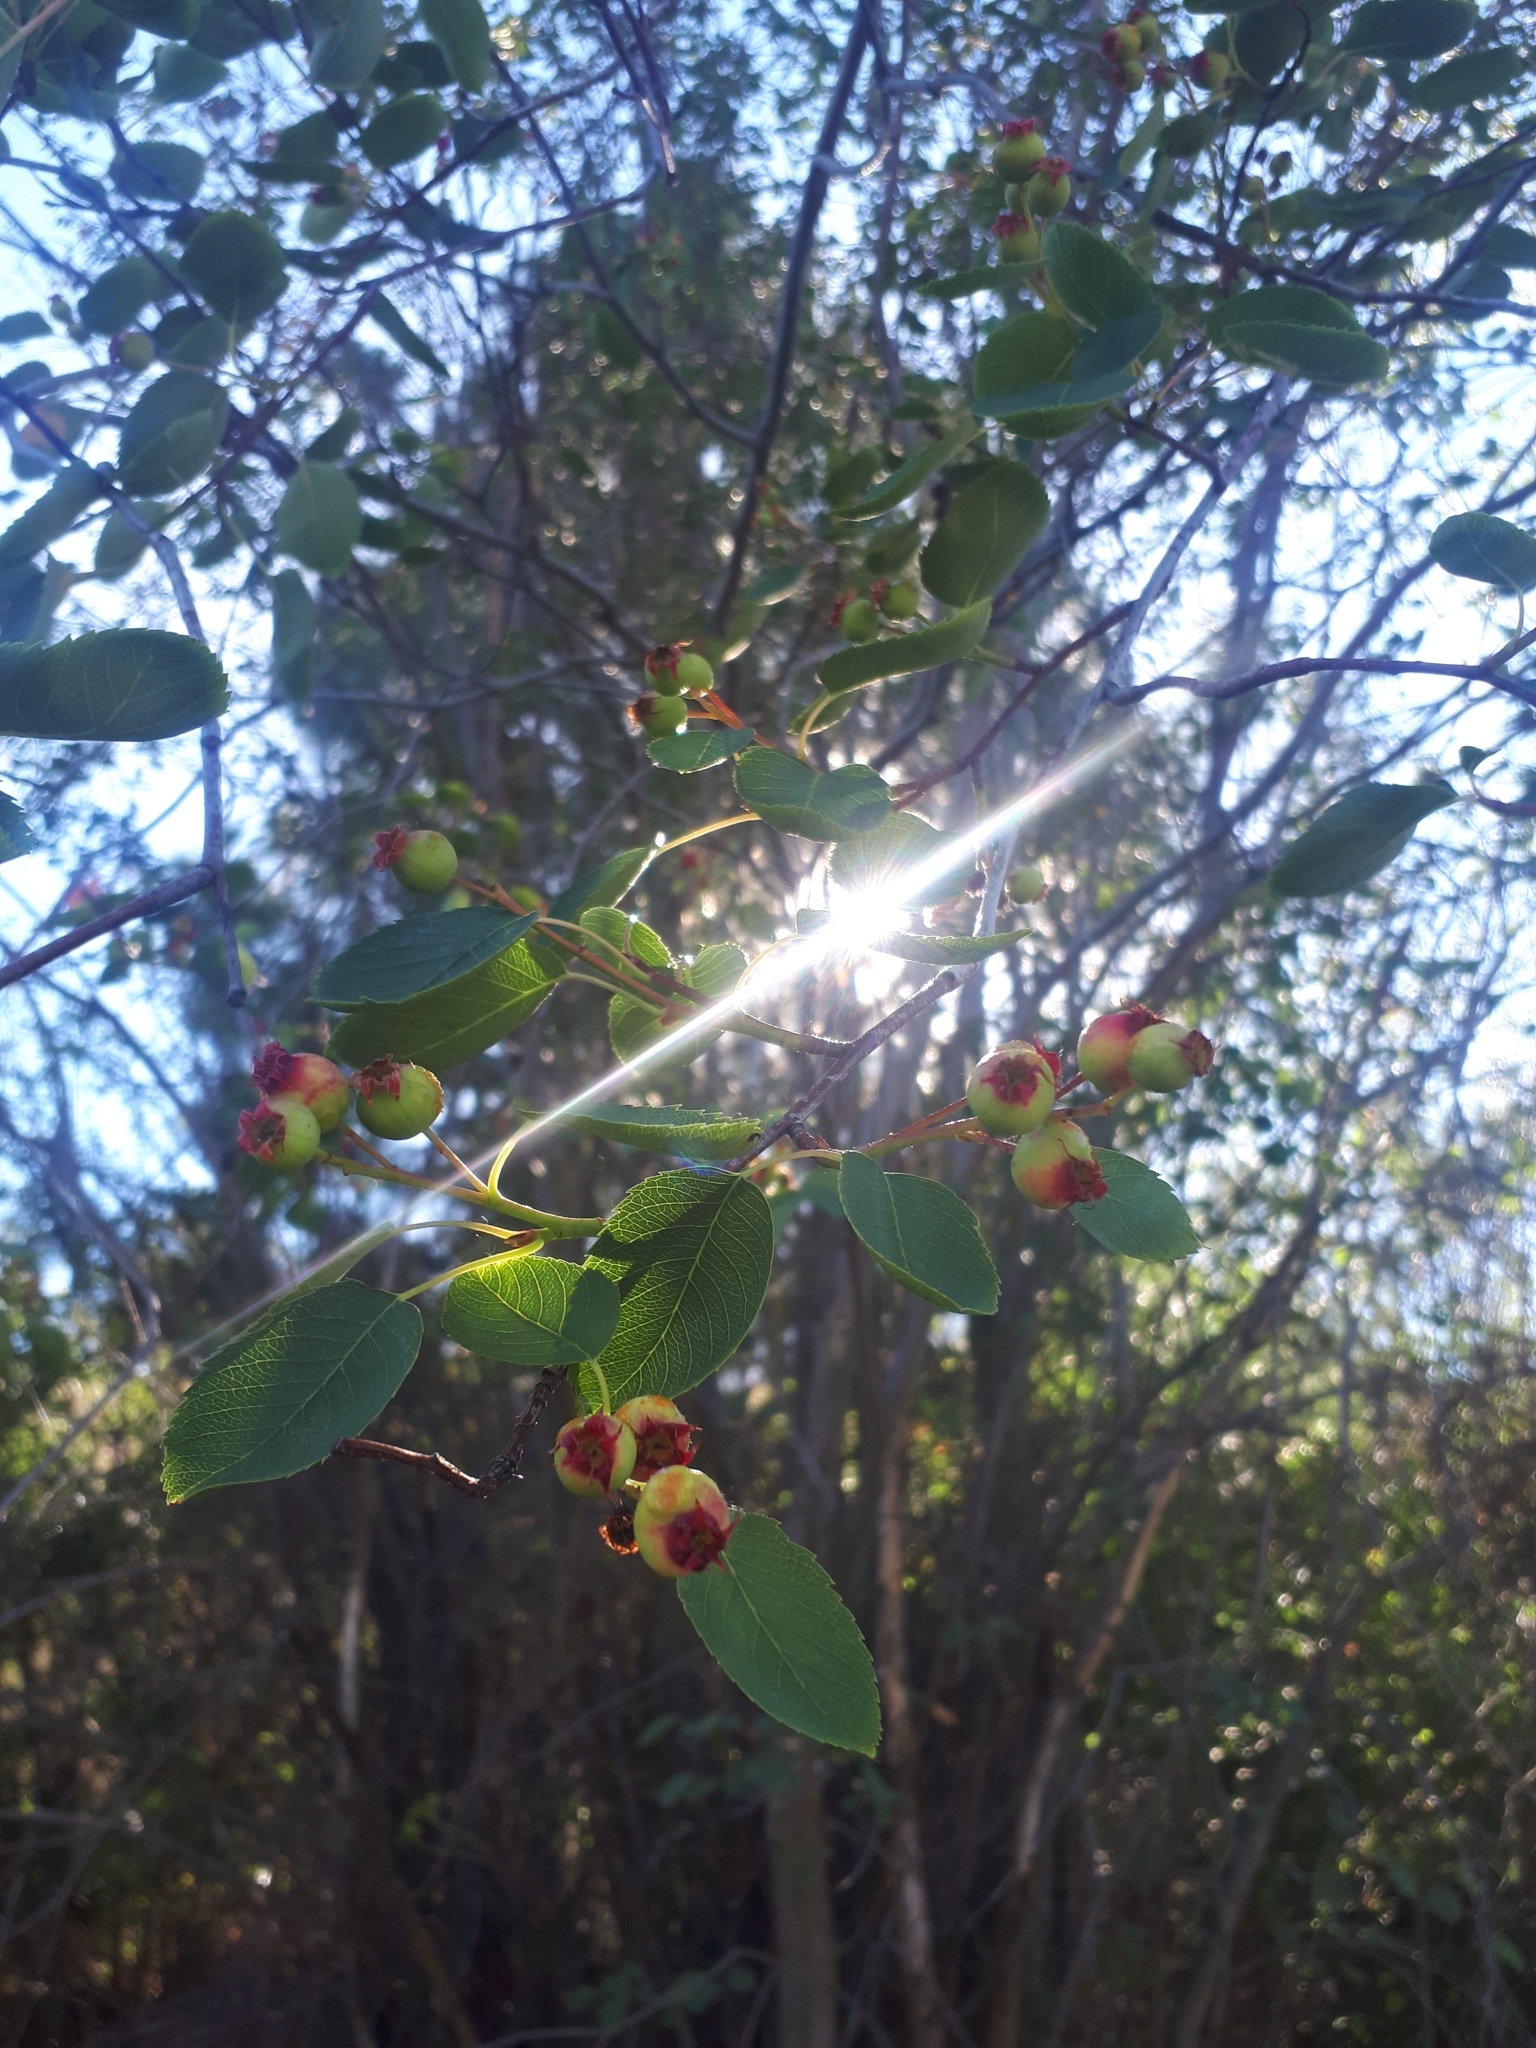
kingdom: Plantae
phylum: Tracheophyta
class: Magnoliopsida
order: Rosales
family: Rosaceae
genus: Amelanchier
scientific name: Amelanchier alnifolia
